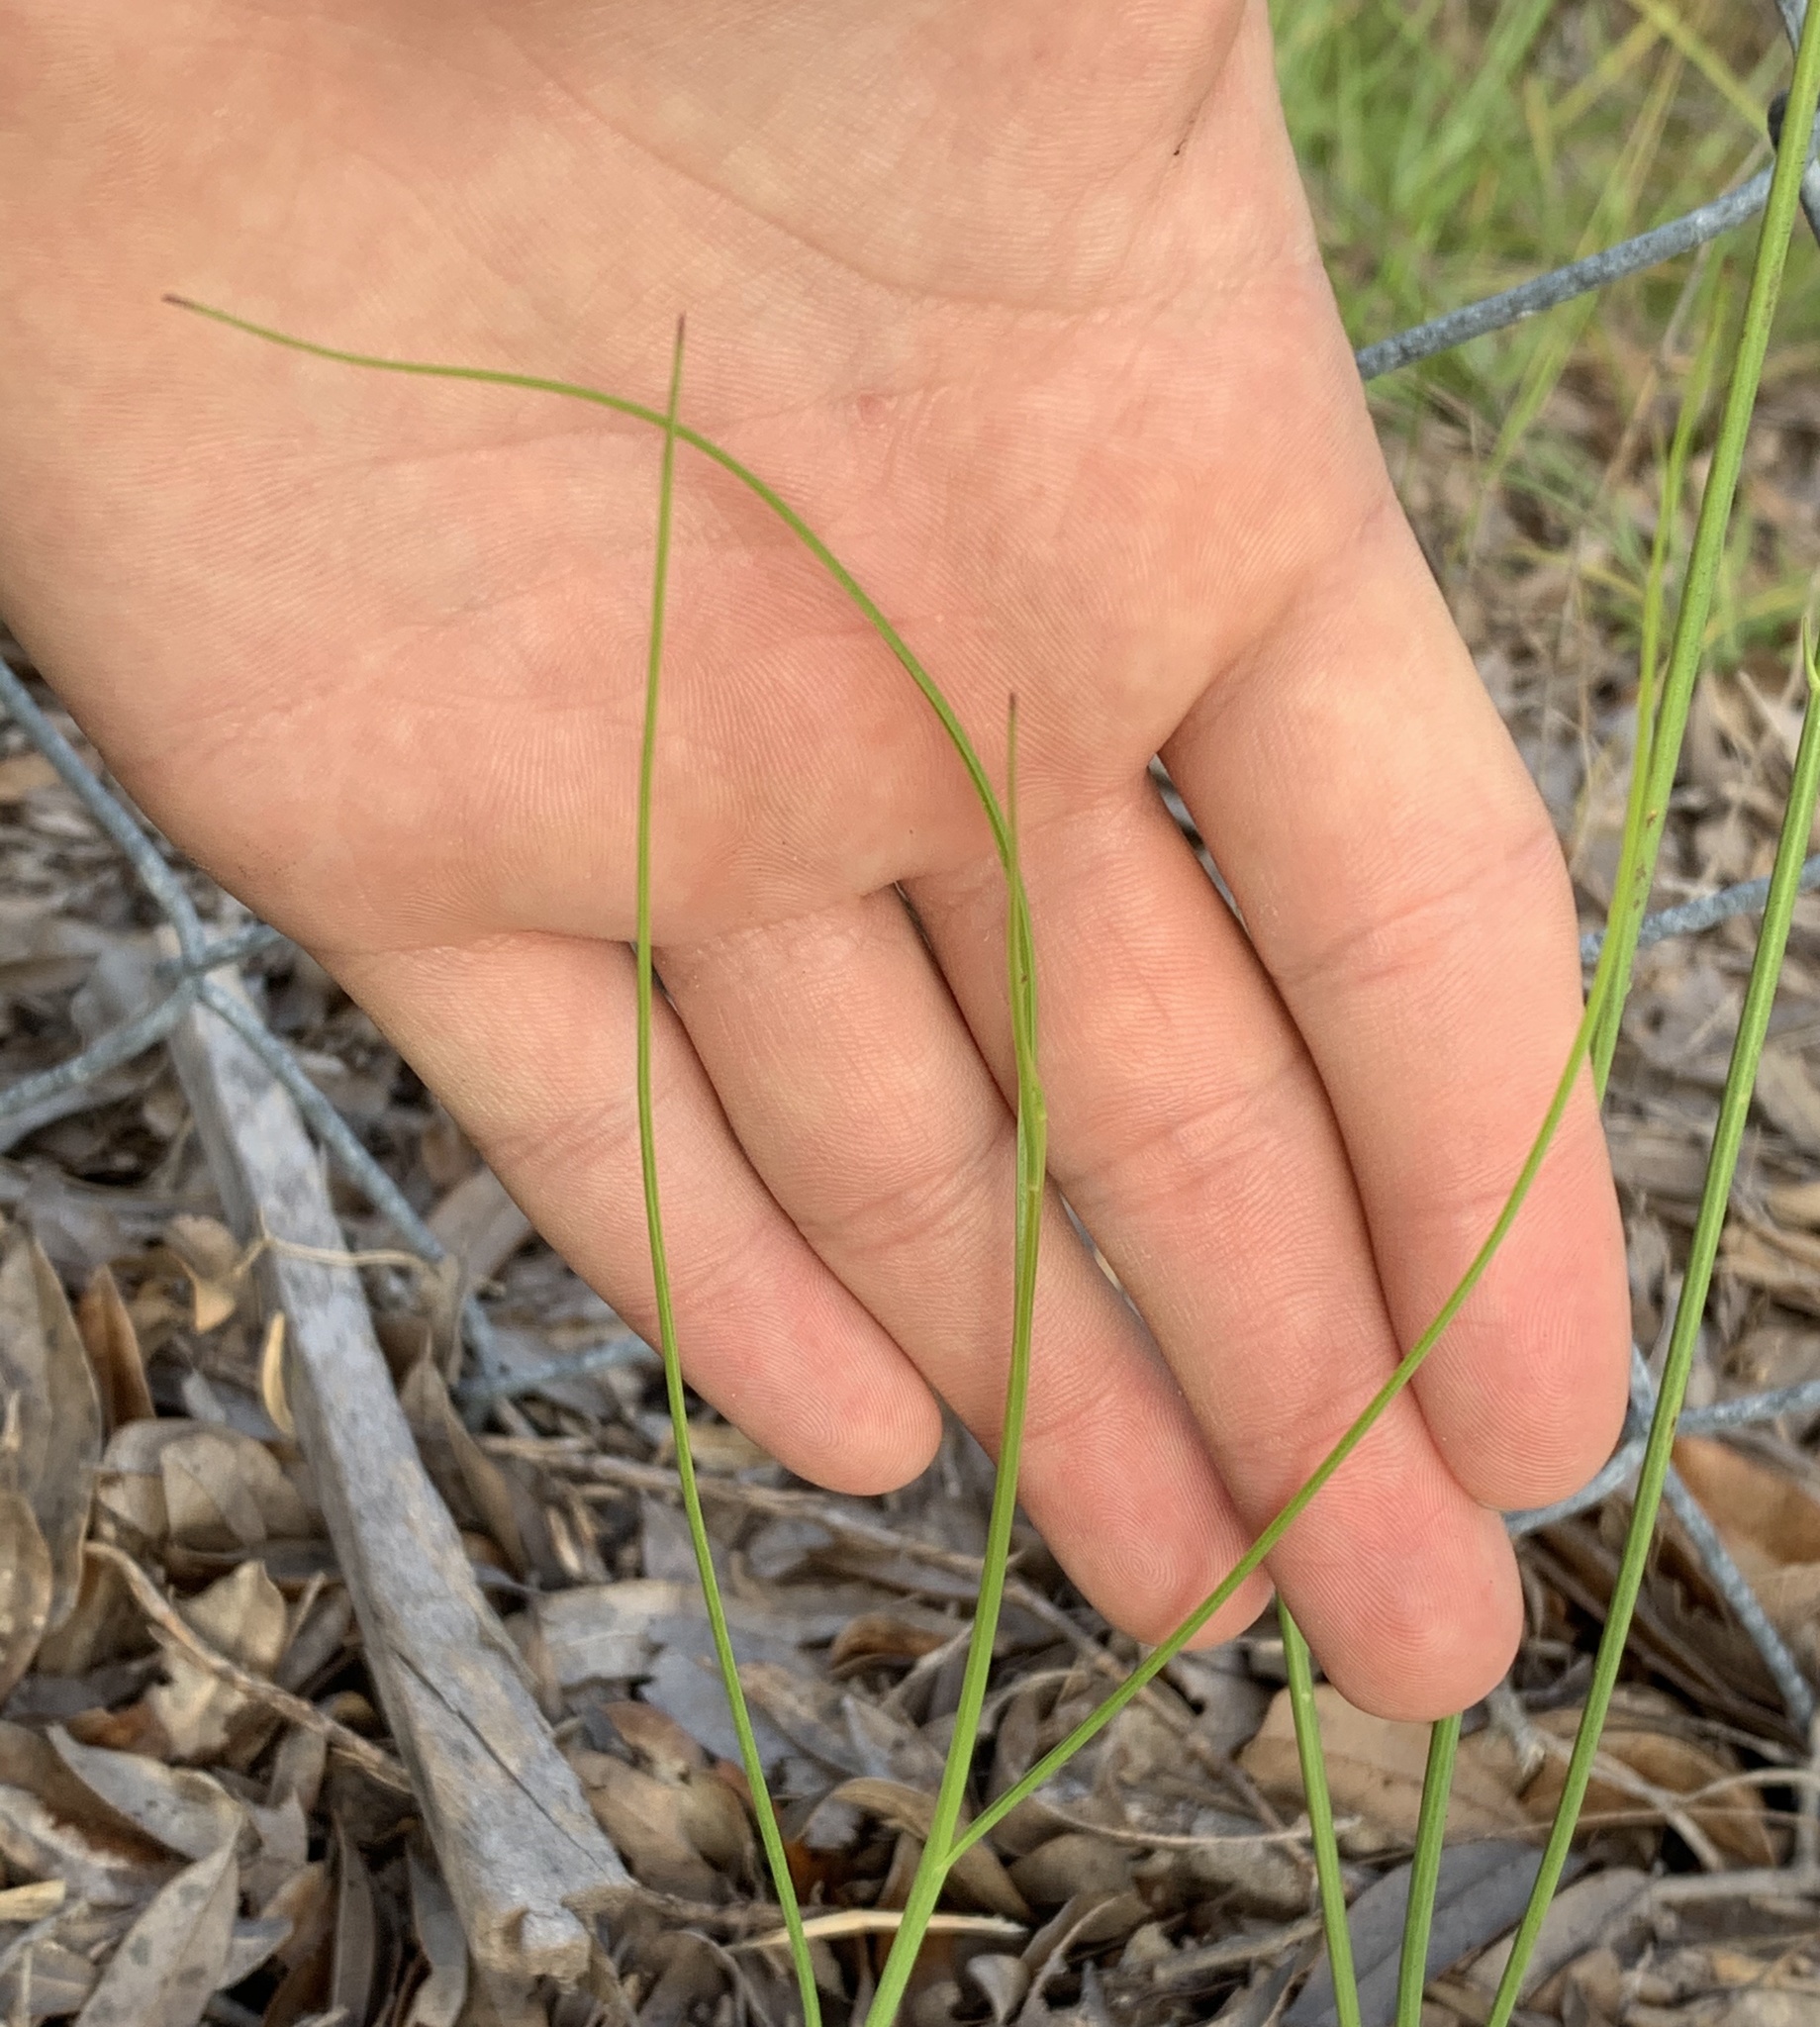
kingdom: Plantae
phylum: Tracheophyta
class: Magnoliopsida
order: Asterales
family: Asteraceae
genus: Lygodesmia
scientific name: Lygodesmia aphylla
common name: Rose-rush
